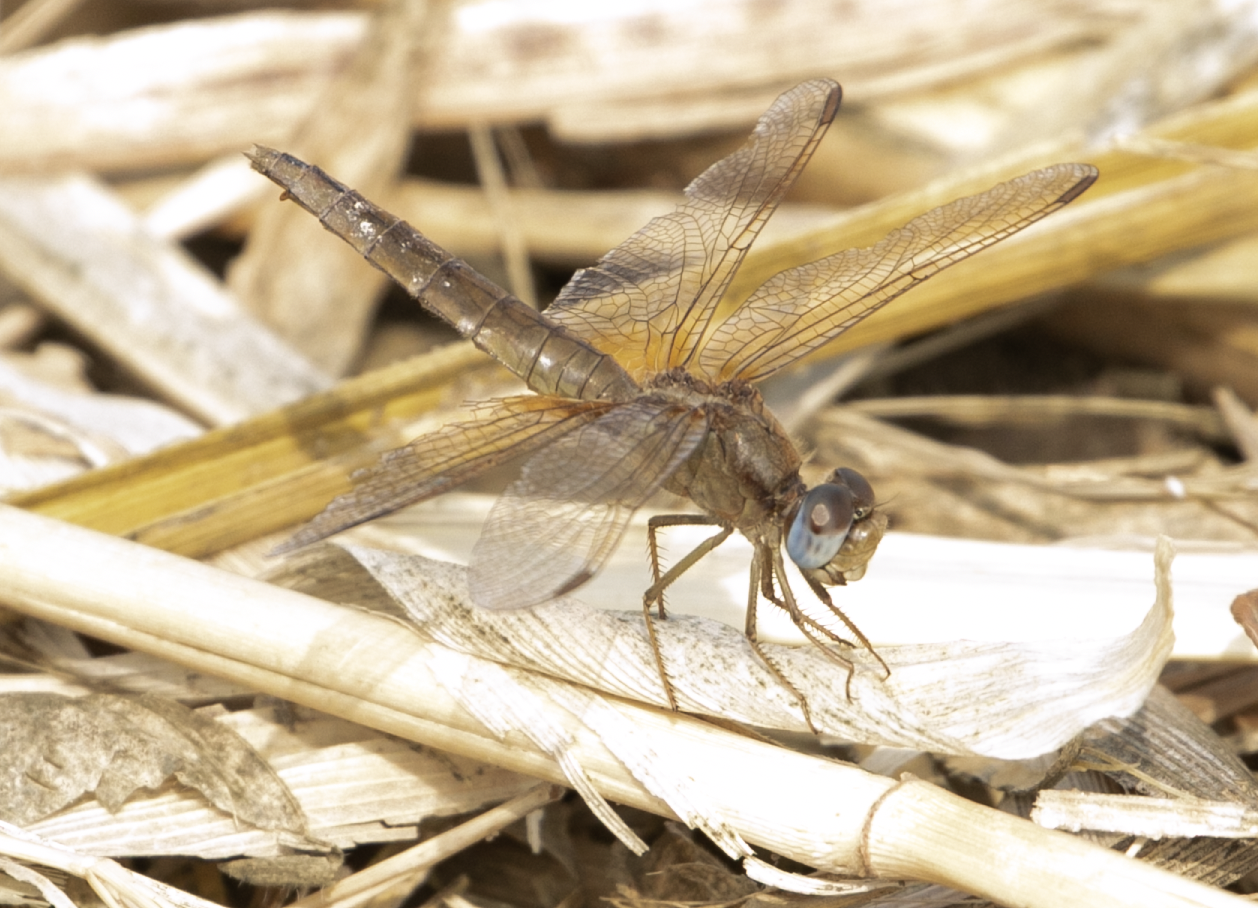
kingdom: Animalia
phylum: Arthropoda
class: Insecta
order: Odonata
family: Libellulidae
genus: Crocothemis
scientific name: Crocothemis erythraea
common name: Scarlet dragonfly
